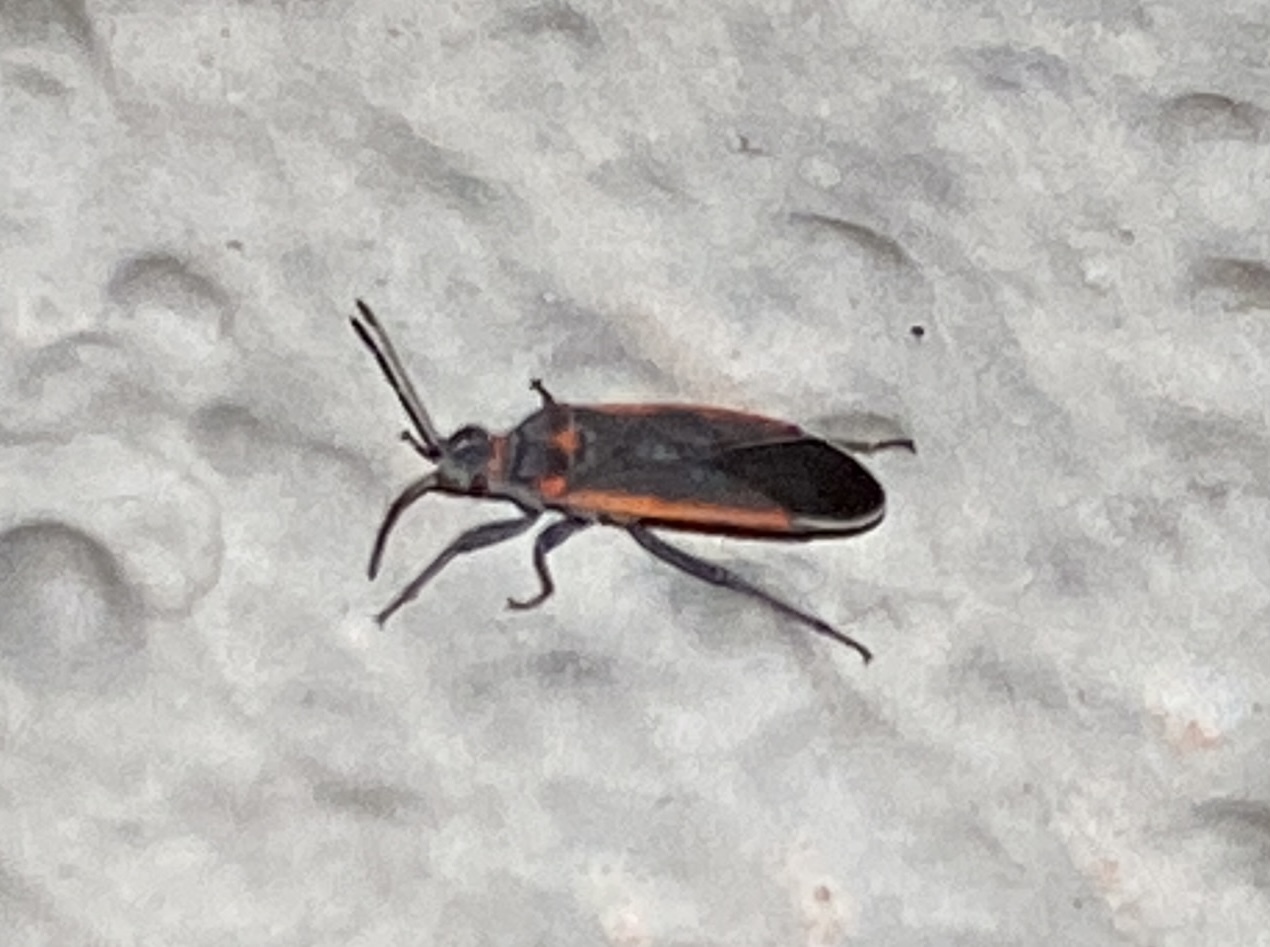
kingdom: Animalia
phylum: Arthropoda
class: Insecta
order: Hemiptera
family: Lygaeidae
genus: Melacoryphus
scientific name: Melacoryphus lateralis
